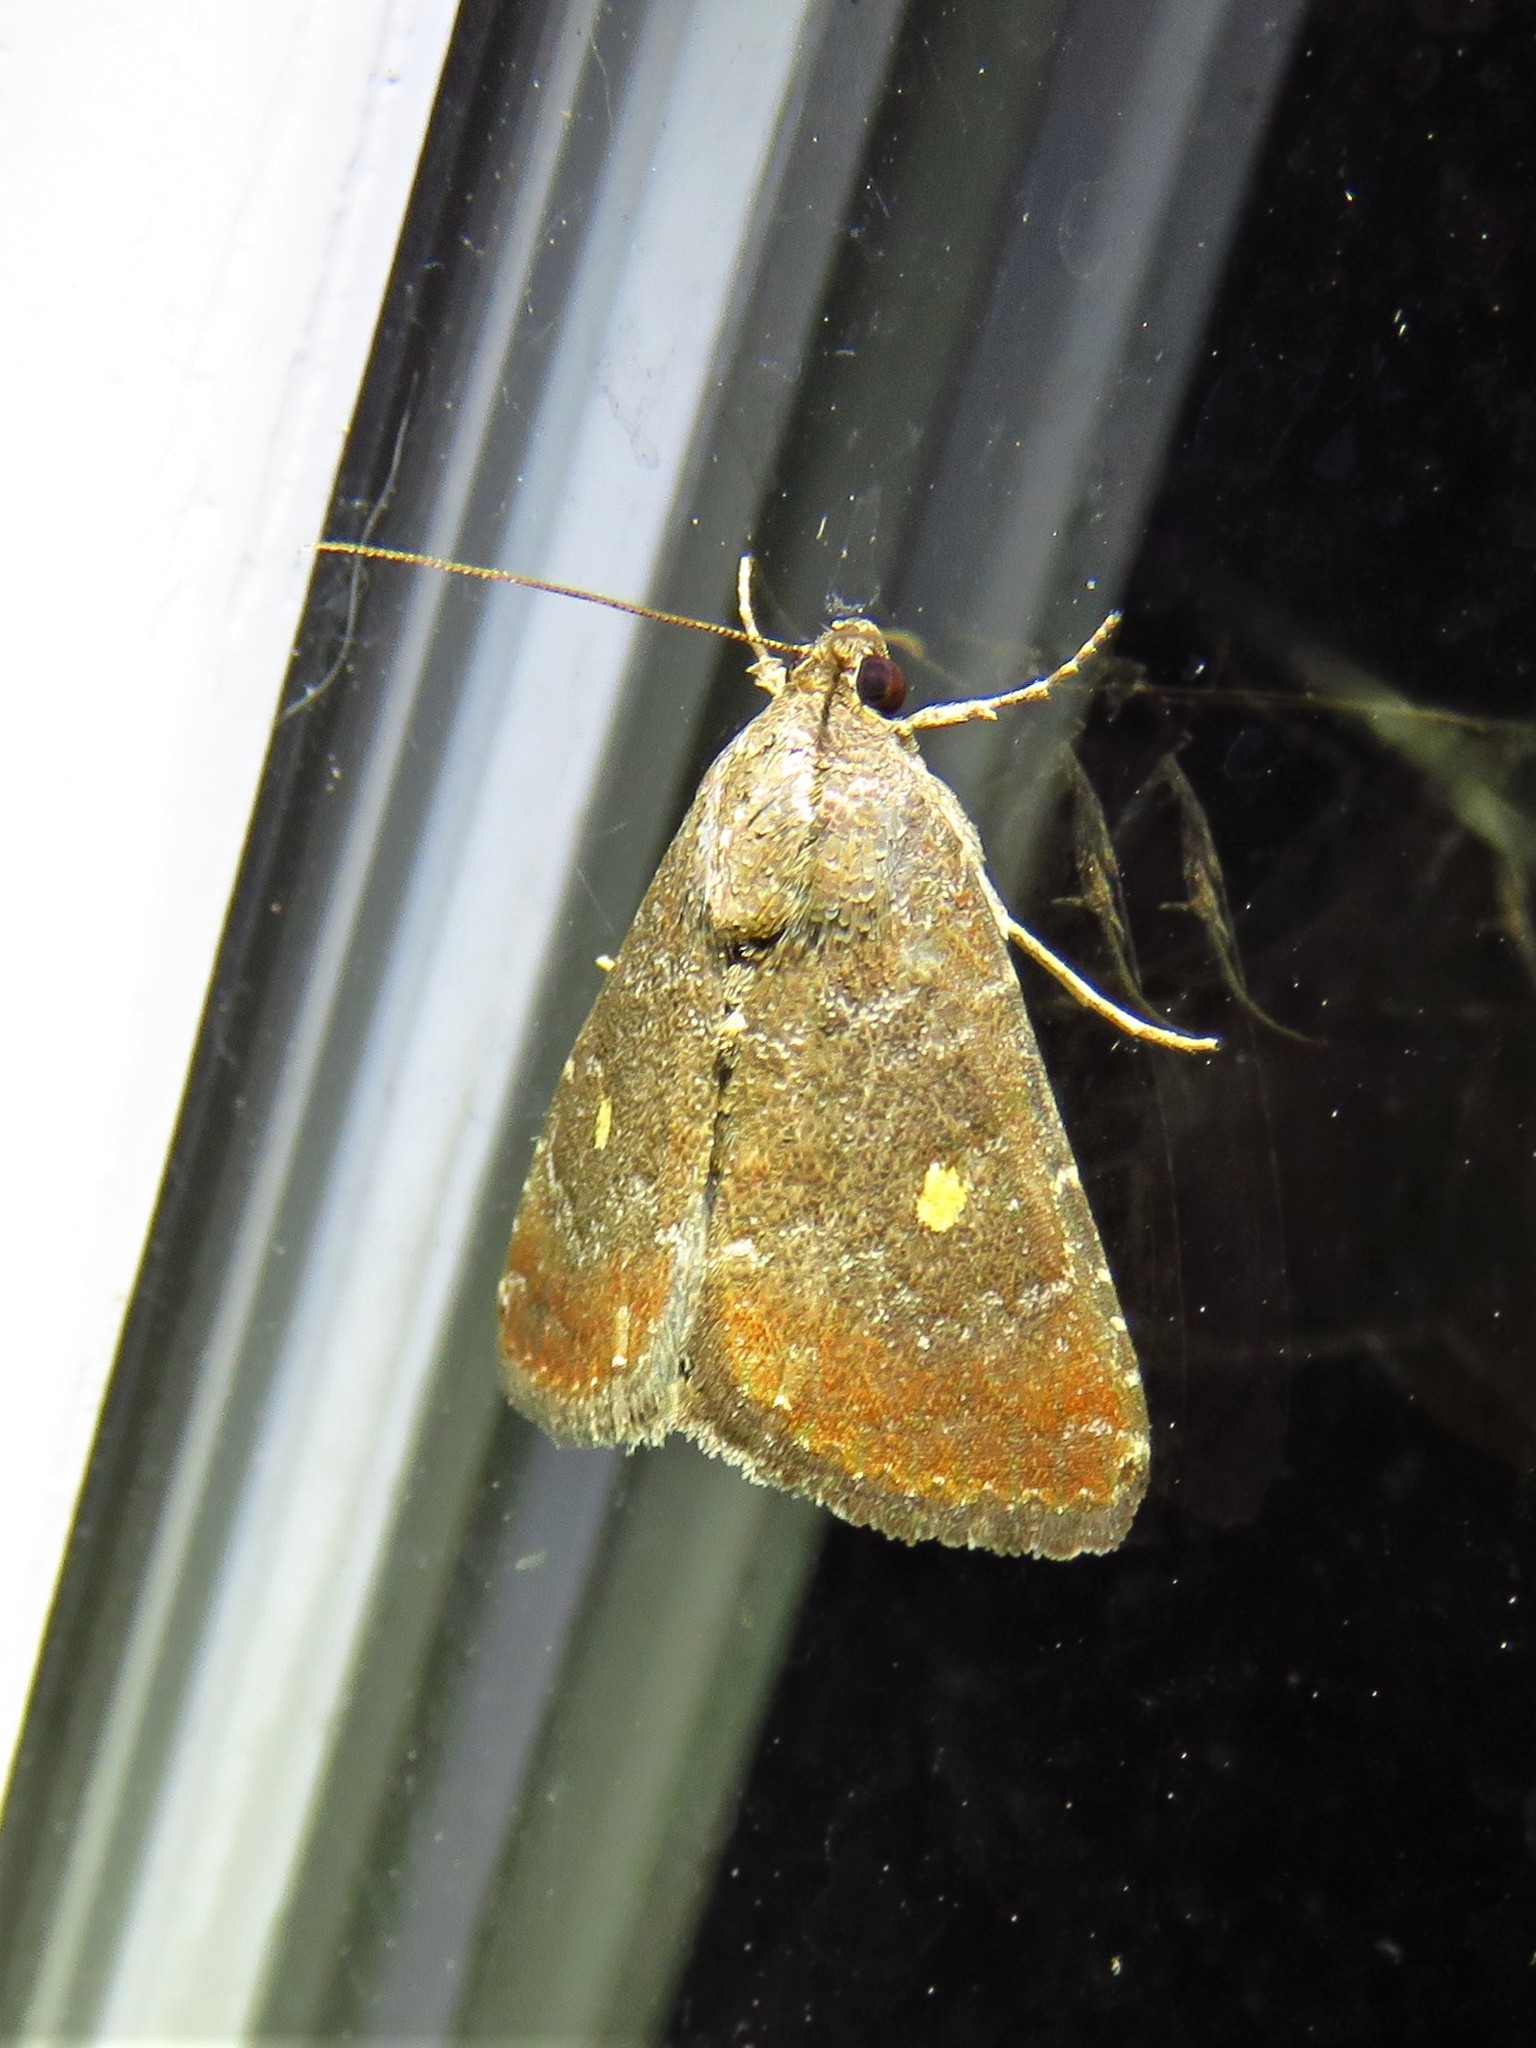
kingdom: Animalia
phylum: Arthropoda
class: Insecta
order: Lepidoptera
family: Noctuidae
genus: Amyna
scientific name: Amyna stricta
